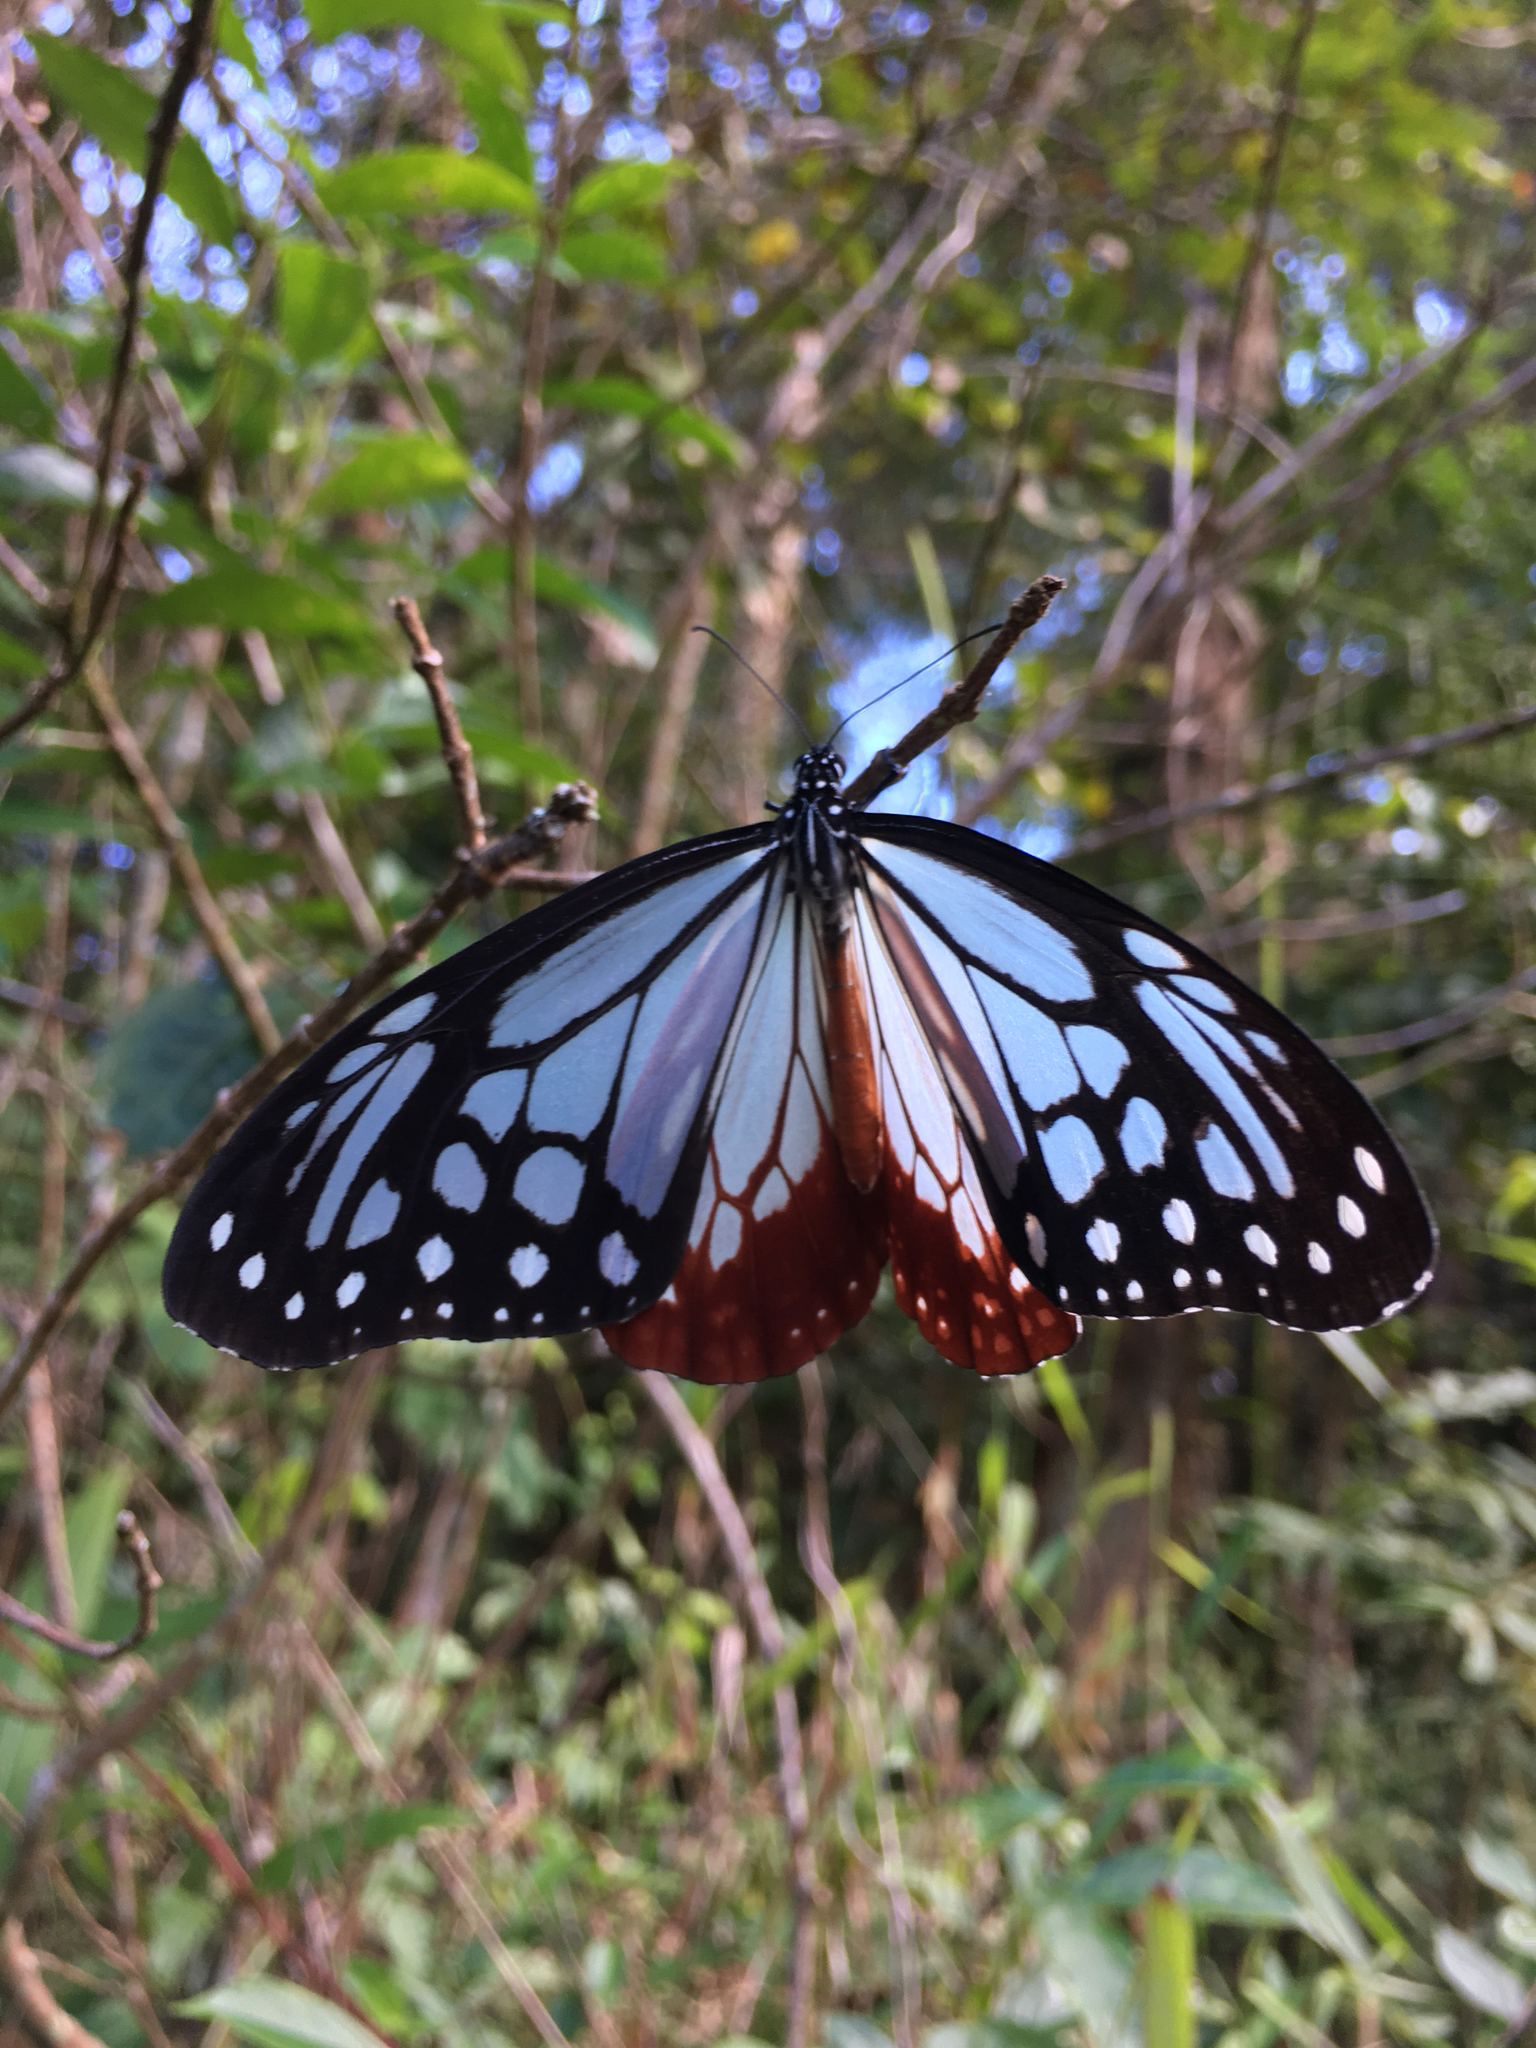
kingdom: Animalia
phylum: Arthropoda
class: Insecta
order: Lepidoptera
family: Nymphalidae
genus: Parantica
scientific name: Parantica sita
